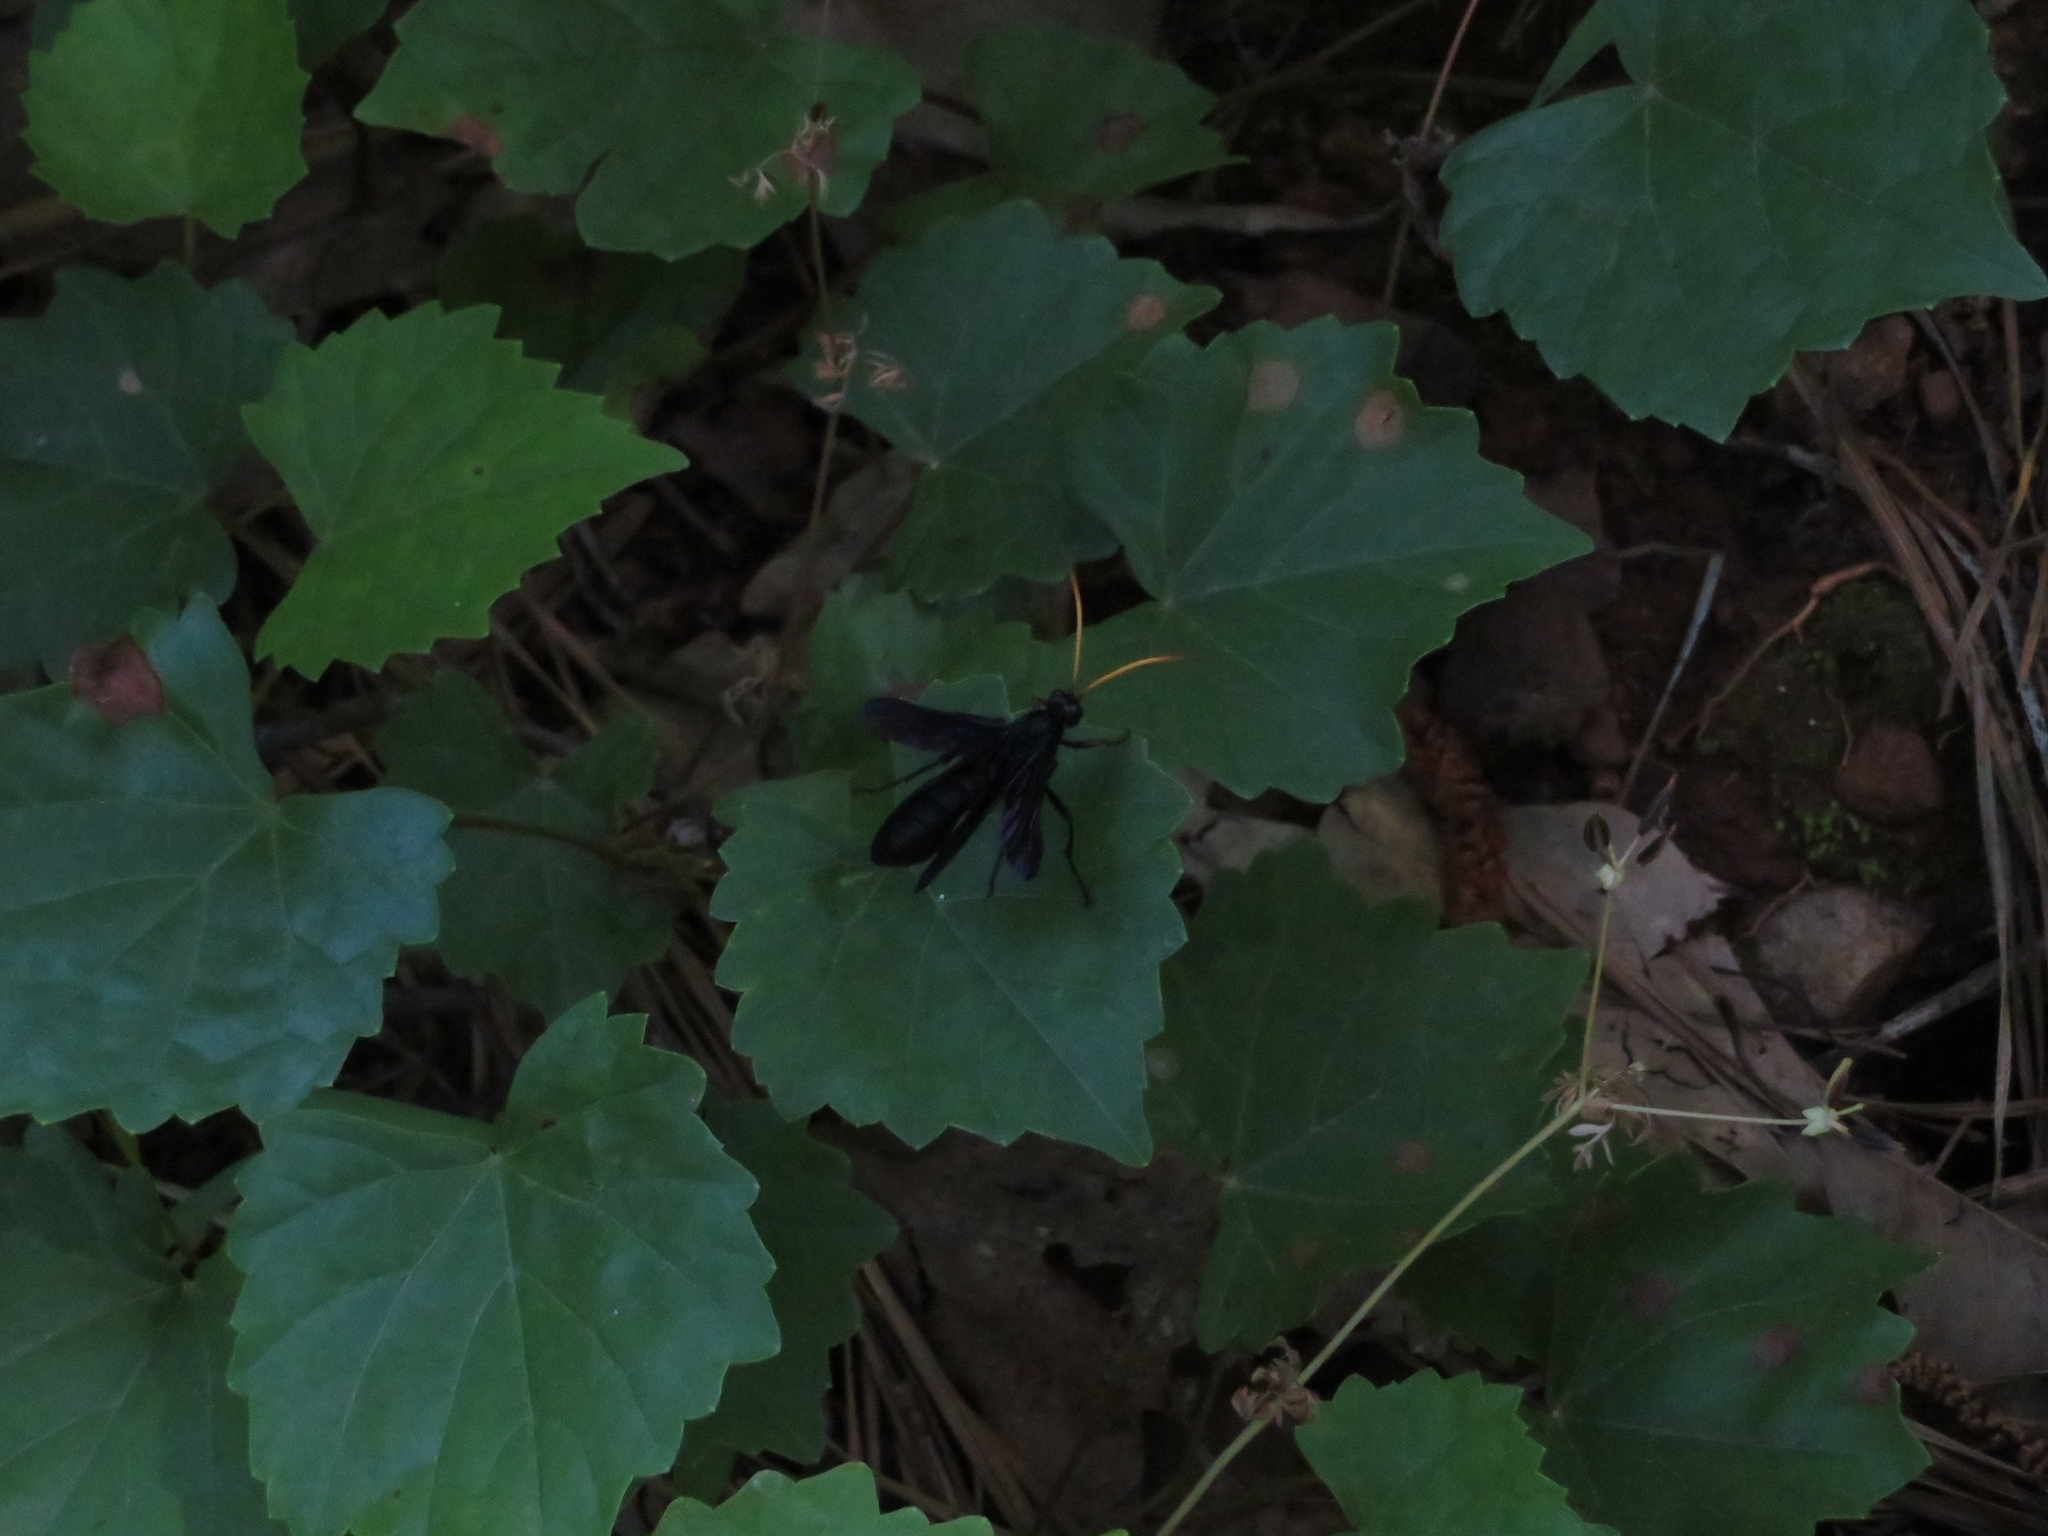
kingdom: Animalia
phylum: Arthropoda
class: Insecta
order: Hymenoptera
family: Ichneumonidae
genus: Gnamptopelta
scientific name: Gnamptopelta obsidianator
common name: Bent-shielded besieger wasp
